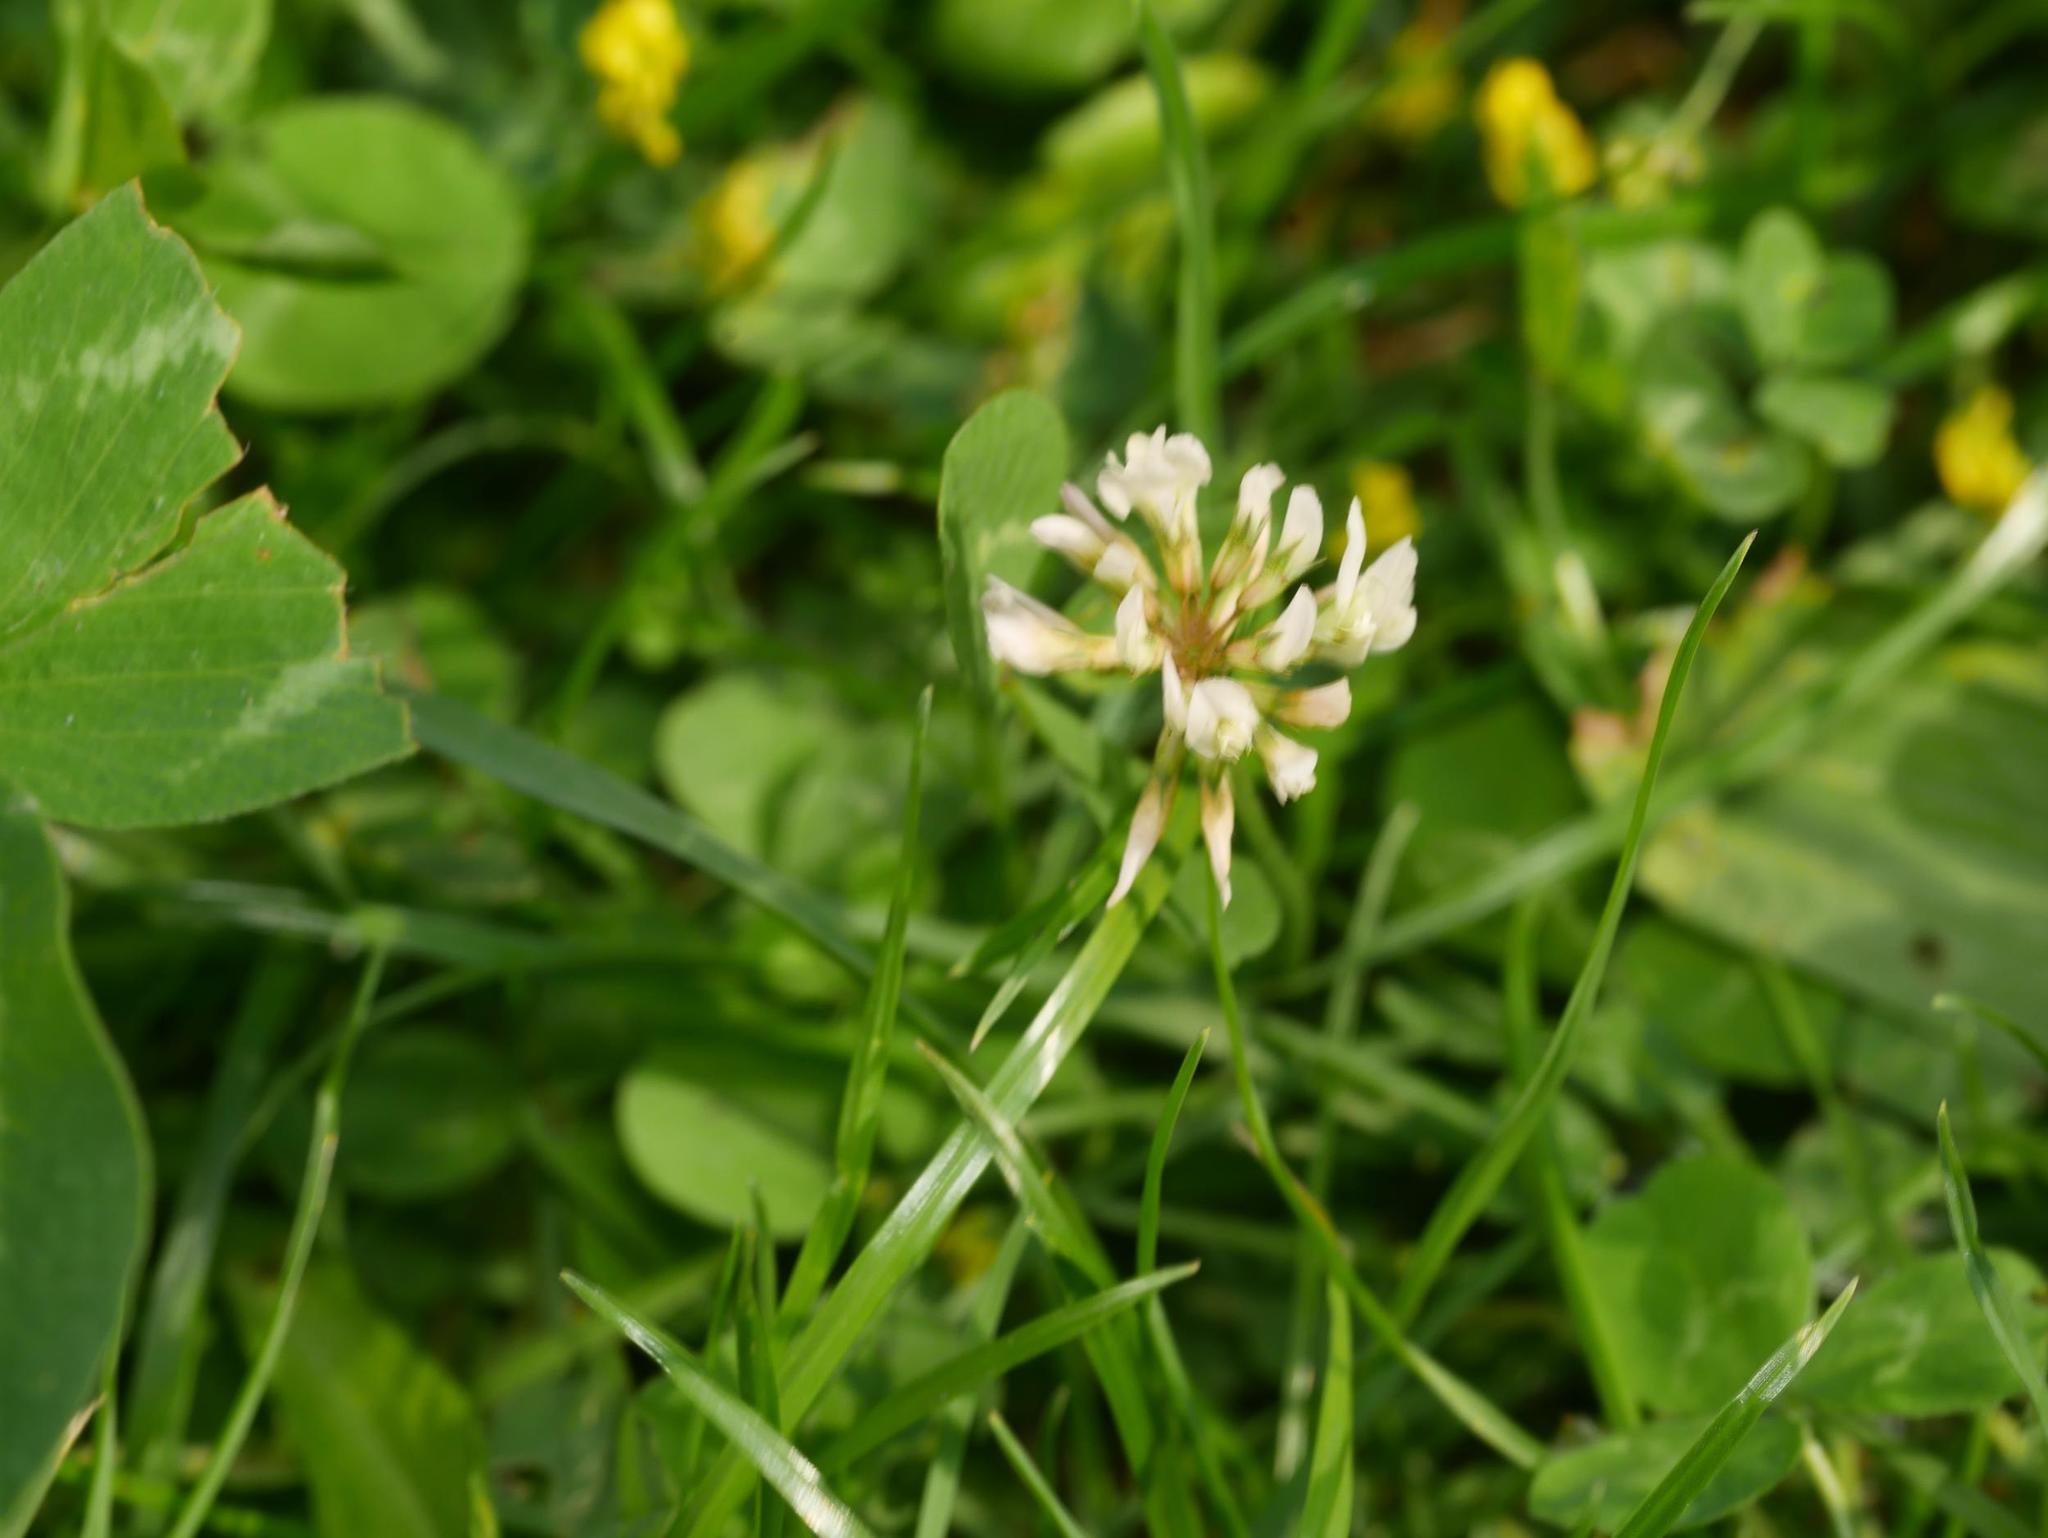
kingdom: Plantae
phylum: Tracheophyta
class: Magnoliopsida
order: Fabales
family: Fabaceae
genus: Trifolium
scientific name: Trifolium repens
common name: White clover
